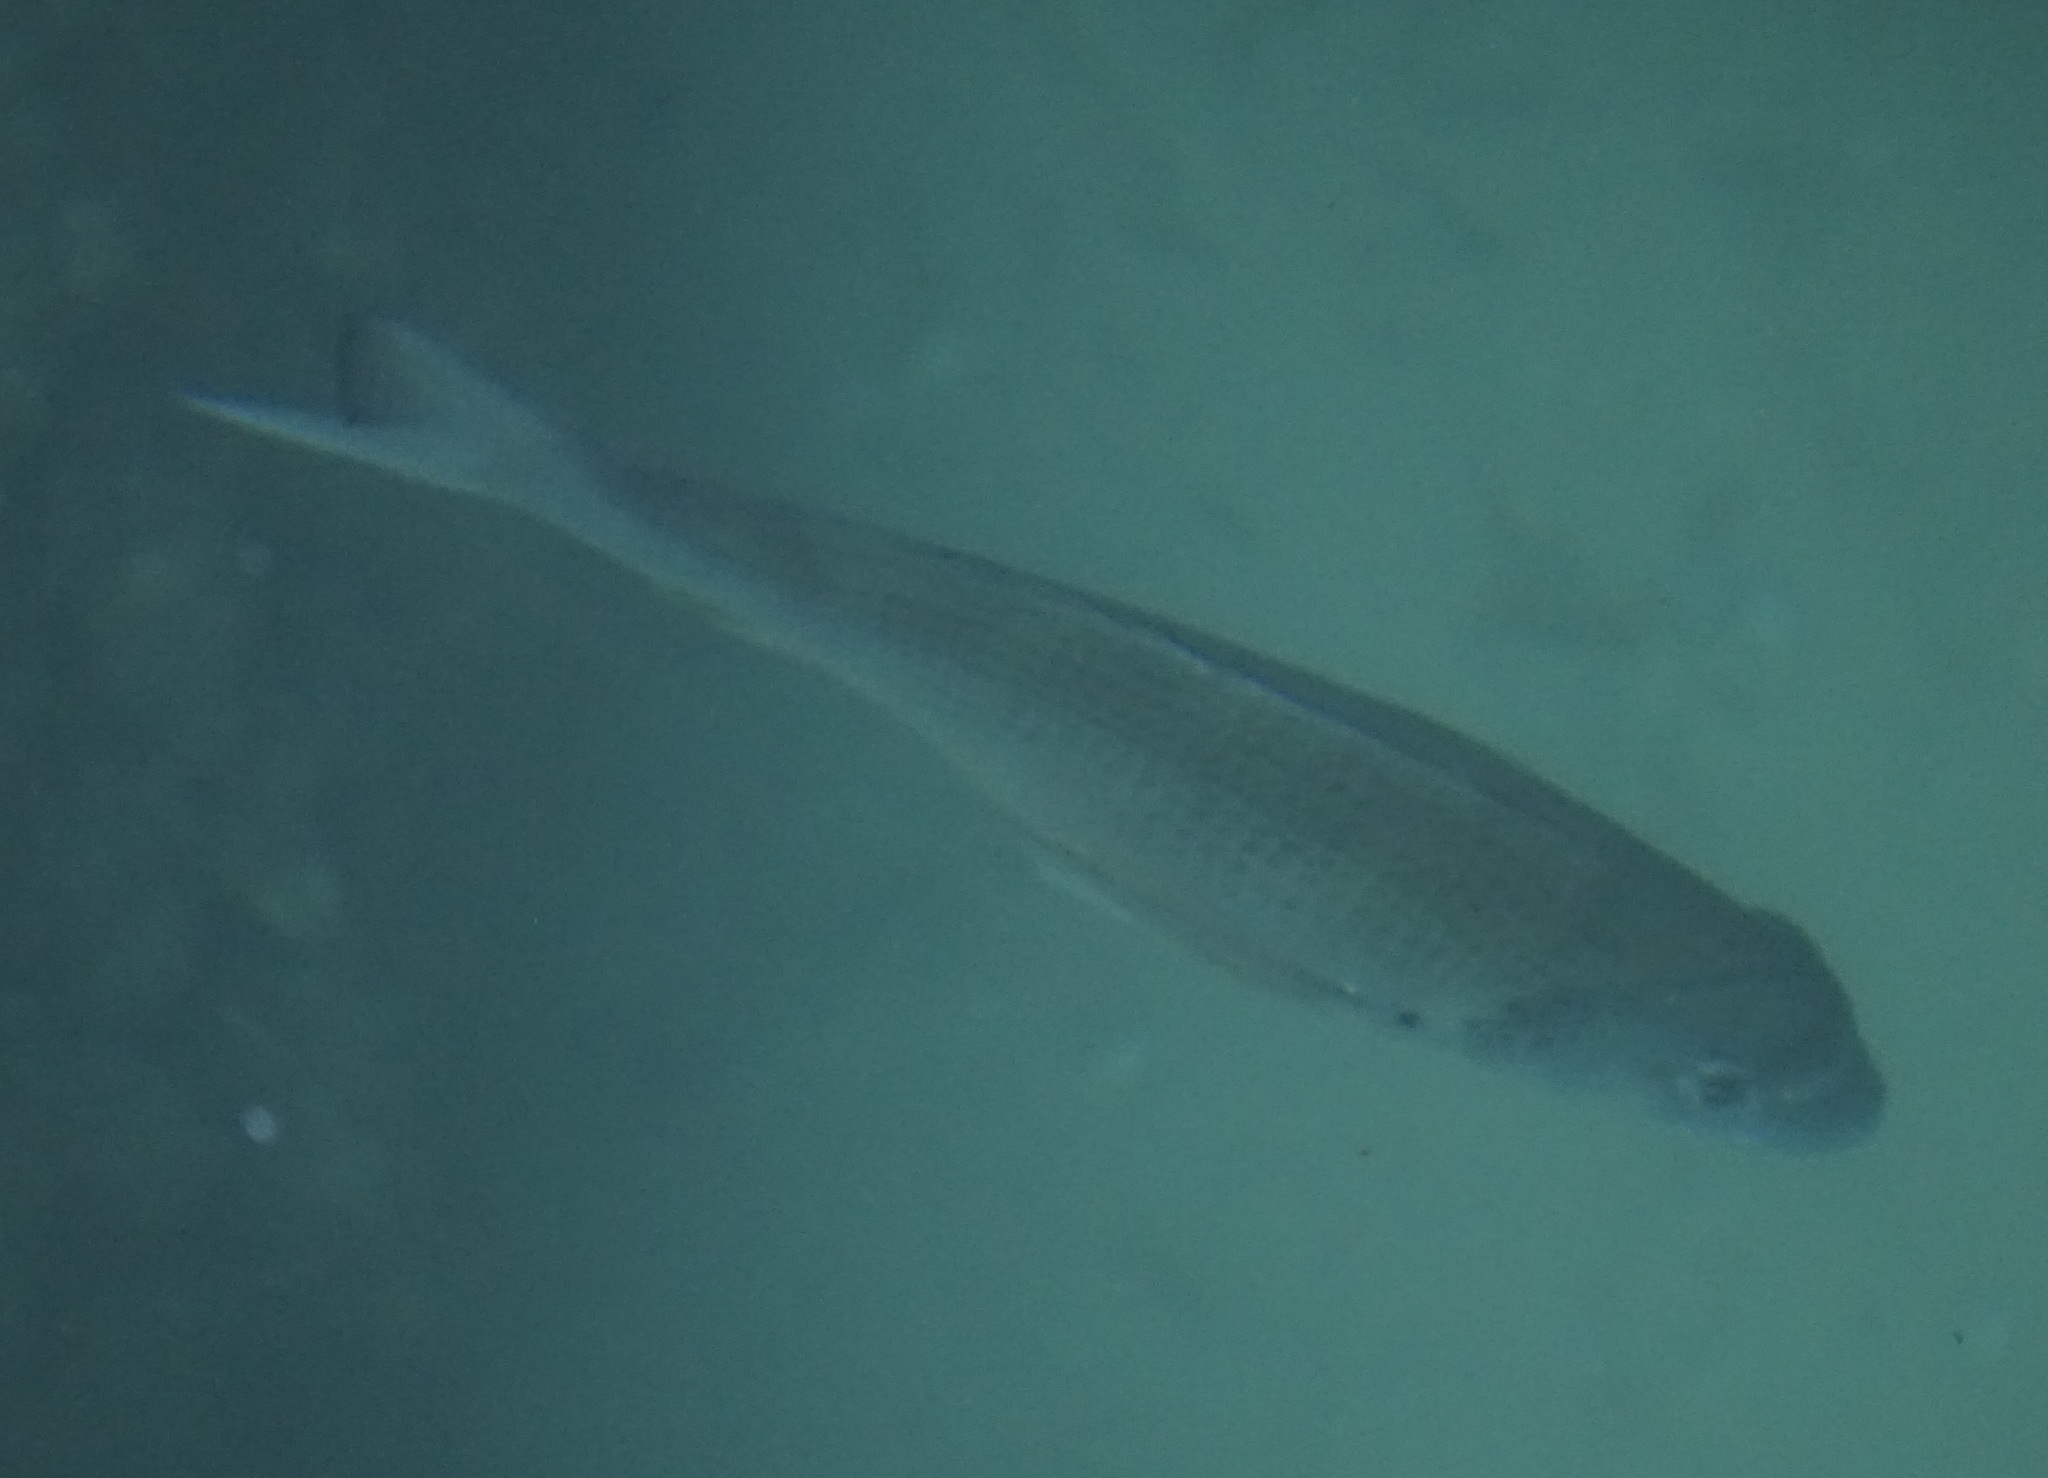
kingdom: Animalia
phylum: Chordata
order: Perciformes
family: Sparidae
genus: Acanthopagrus
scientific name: Acanthopagrus australis
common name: Surf bream
